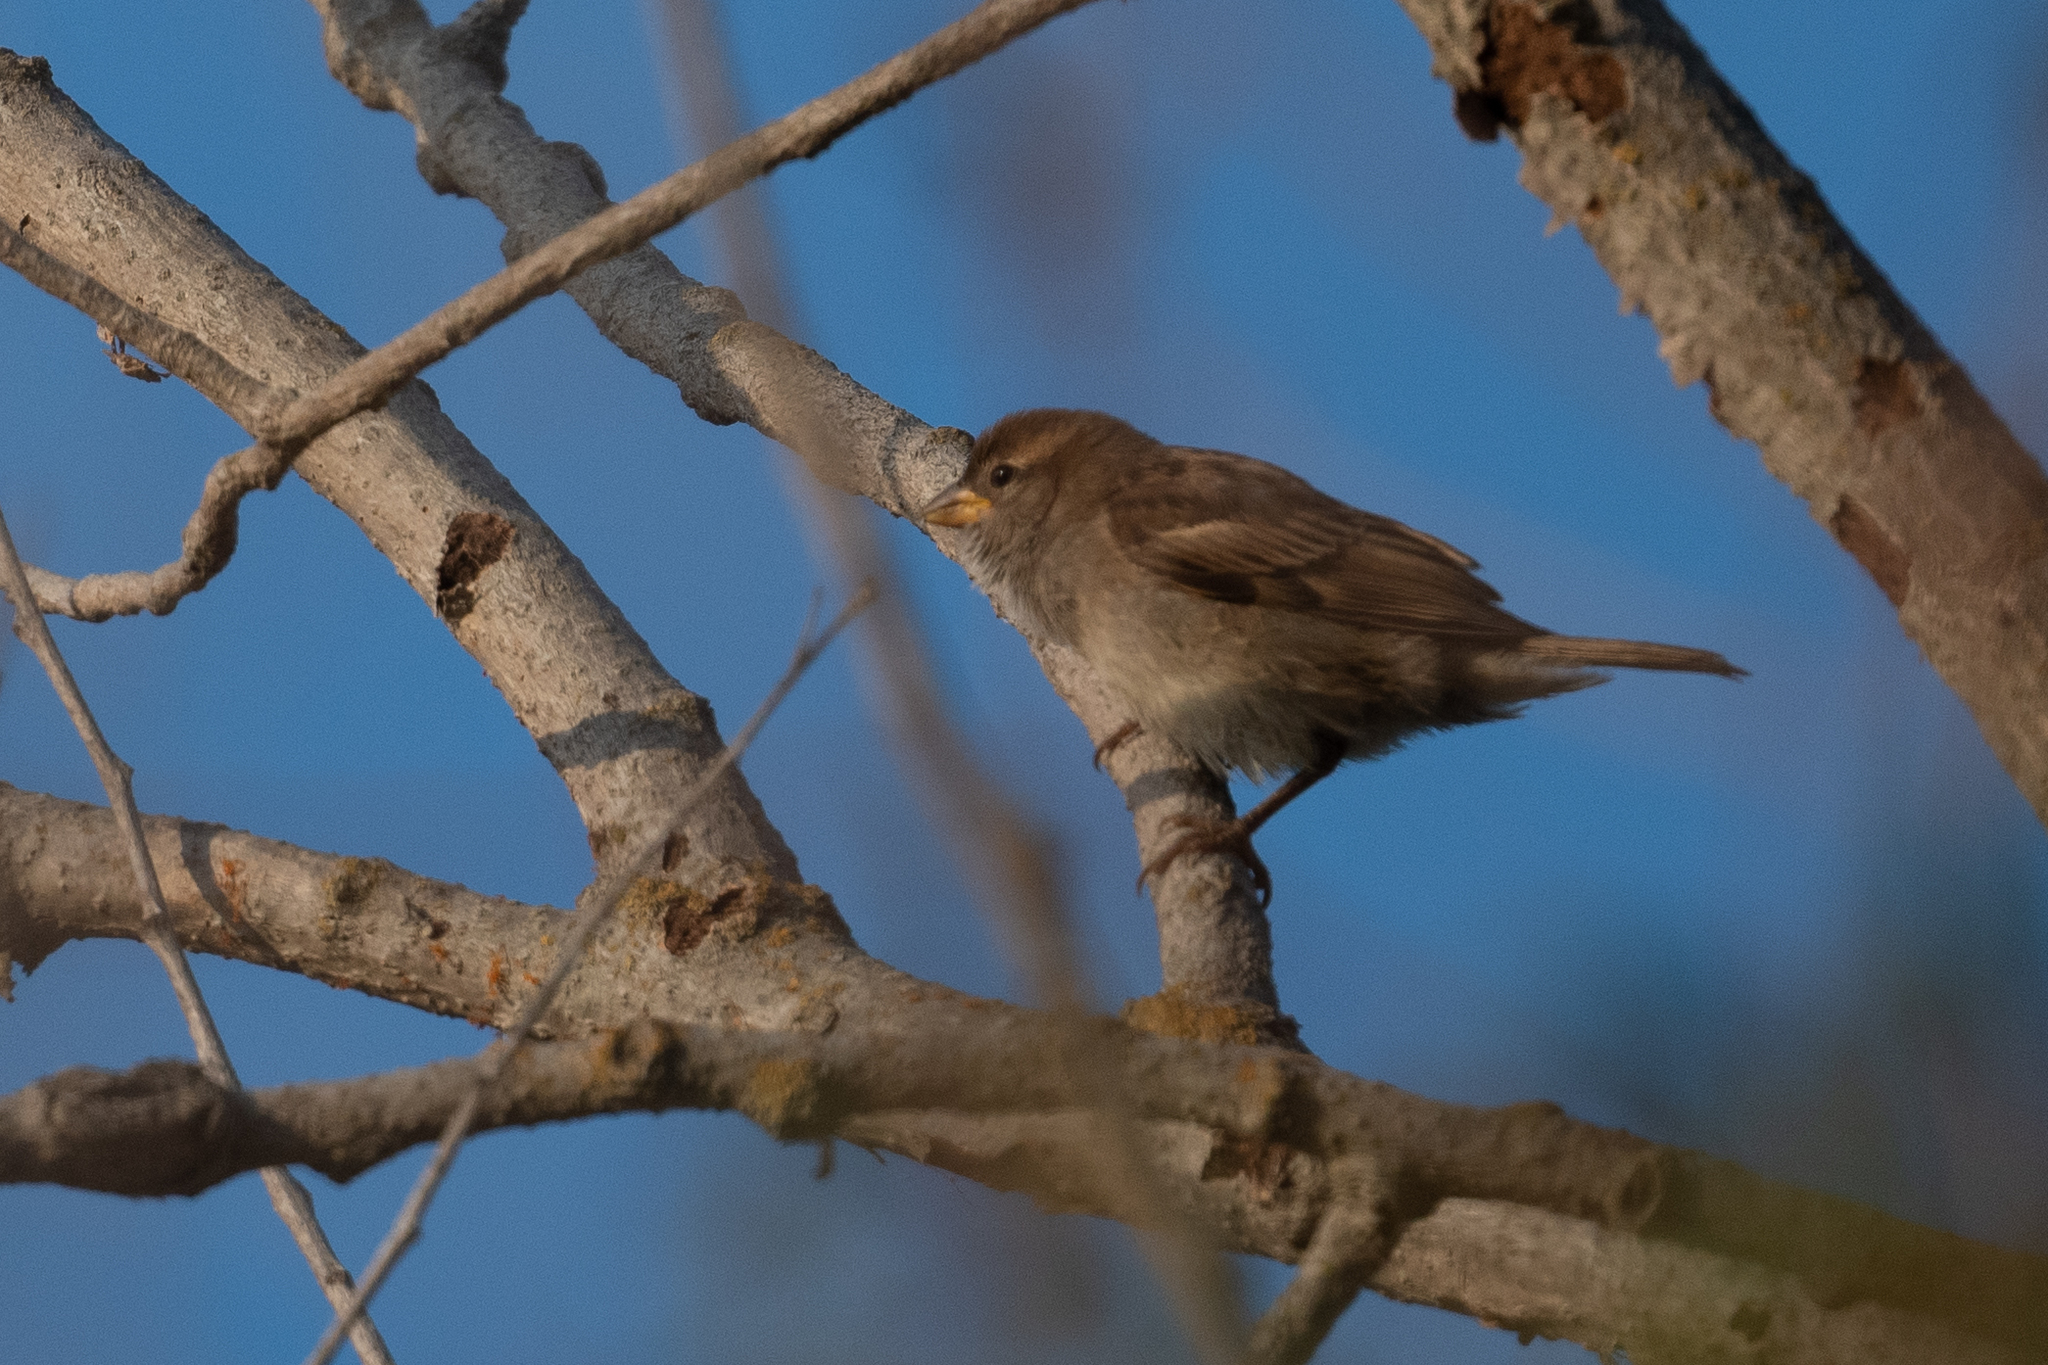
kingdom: Animalia
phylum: Chordata
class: Aves
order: Passeriformes
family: Passeridae
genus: Passer
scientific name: Passer domesticus
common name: House sparrow
